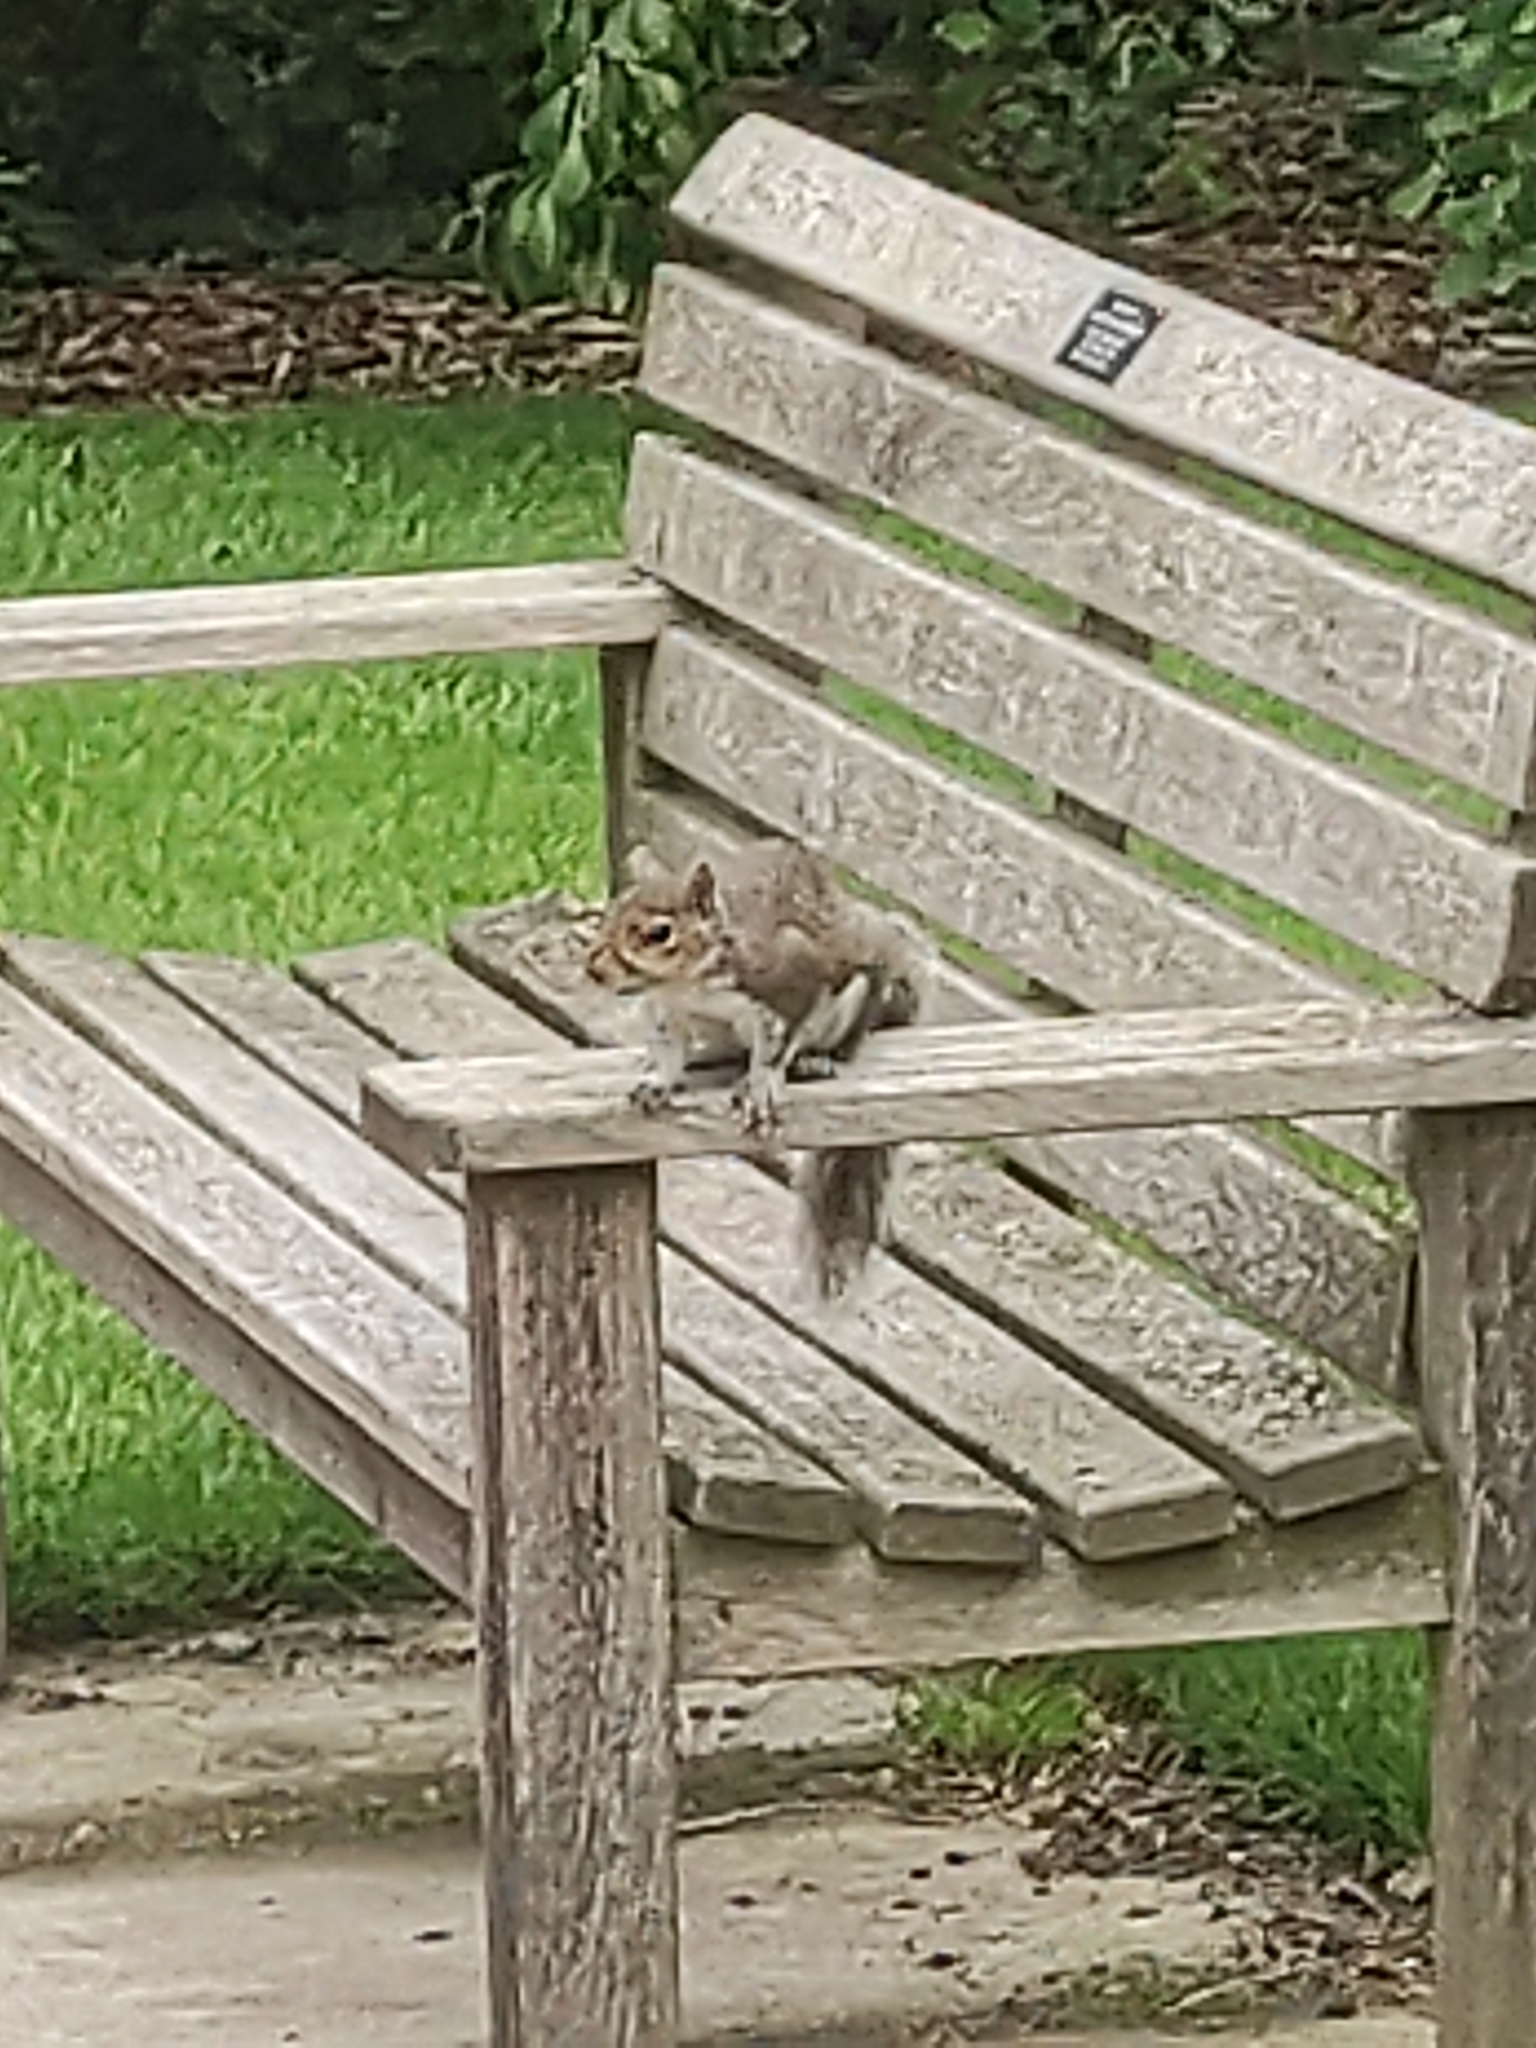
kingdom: Animalia
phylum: Chordata
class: Mammalia
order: Rodentia
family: Sciuridae
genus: Sciurus
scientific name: Sciurus carolinensis
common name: Eastern gray squirrel
